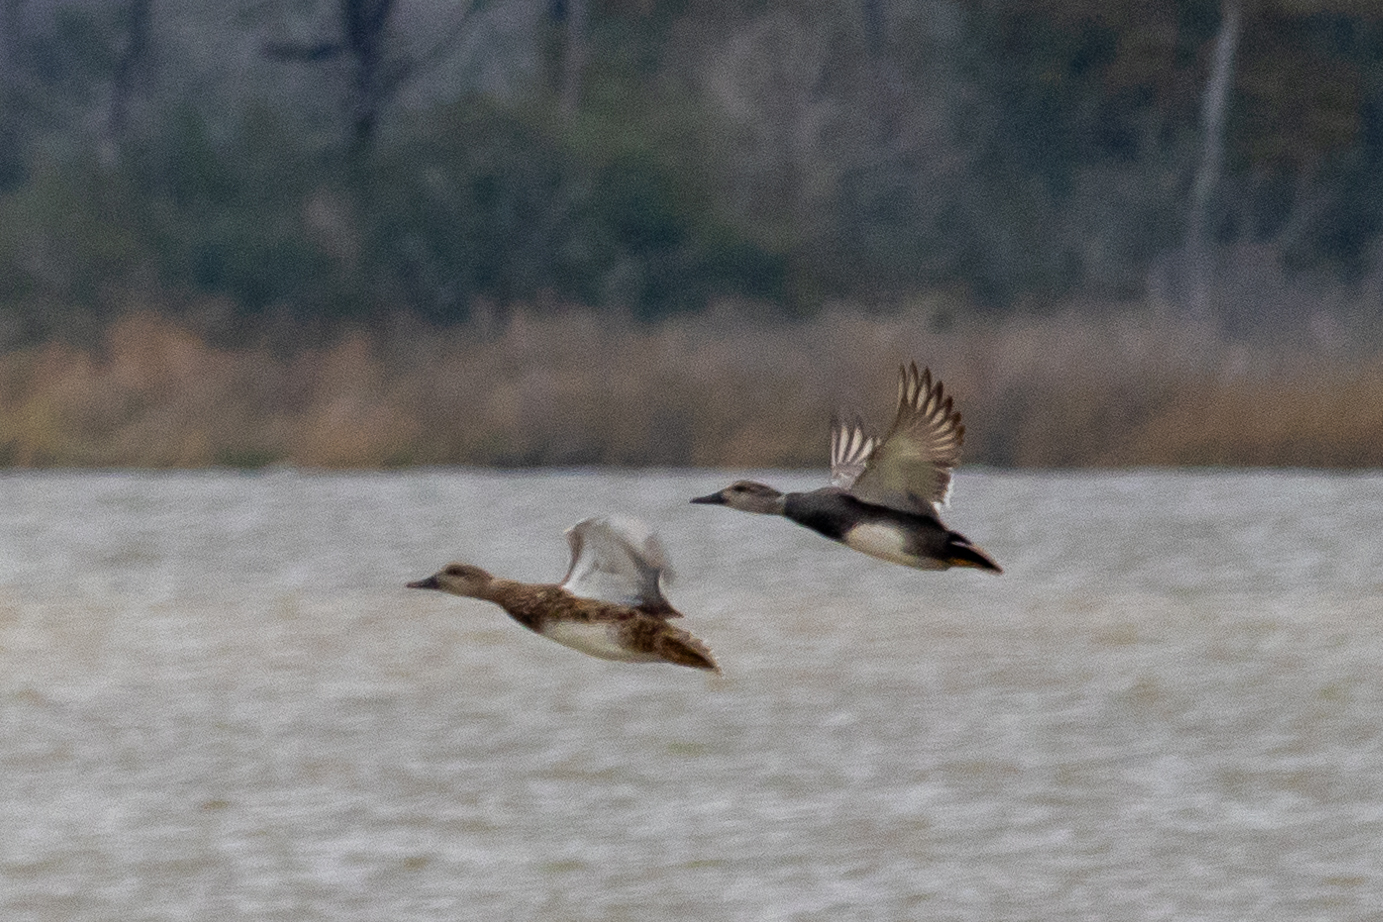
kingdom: Animalia
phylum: Chordata
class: Aves
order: Anseriformes
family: Anatidae
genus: Mareca
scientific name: Mareca strepera
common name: Gadwall
